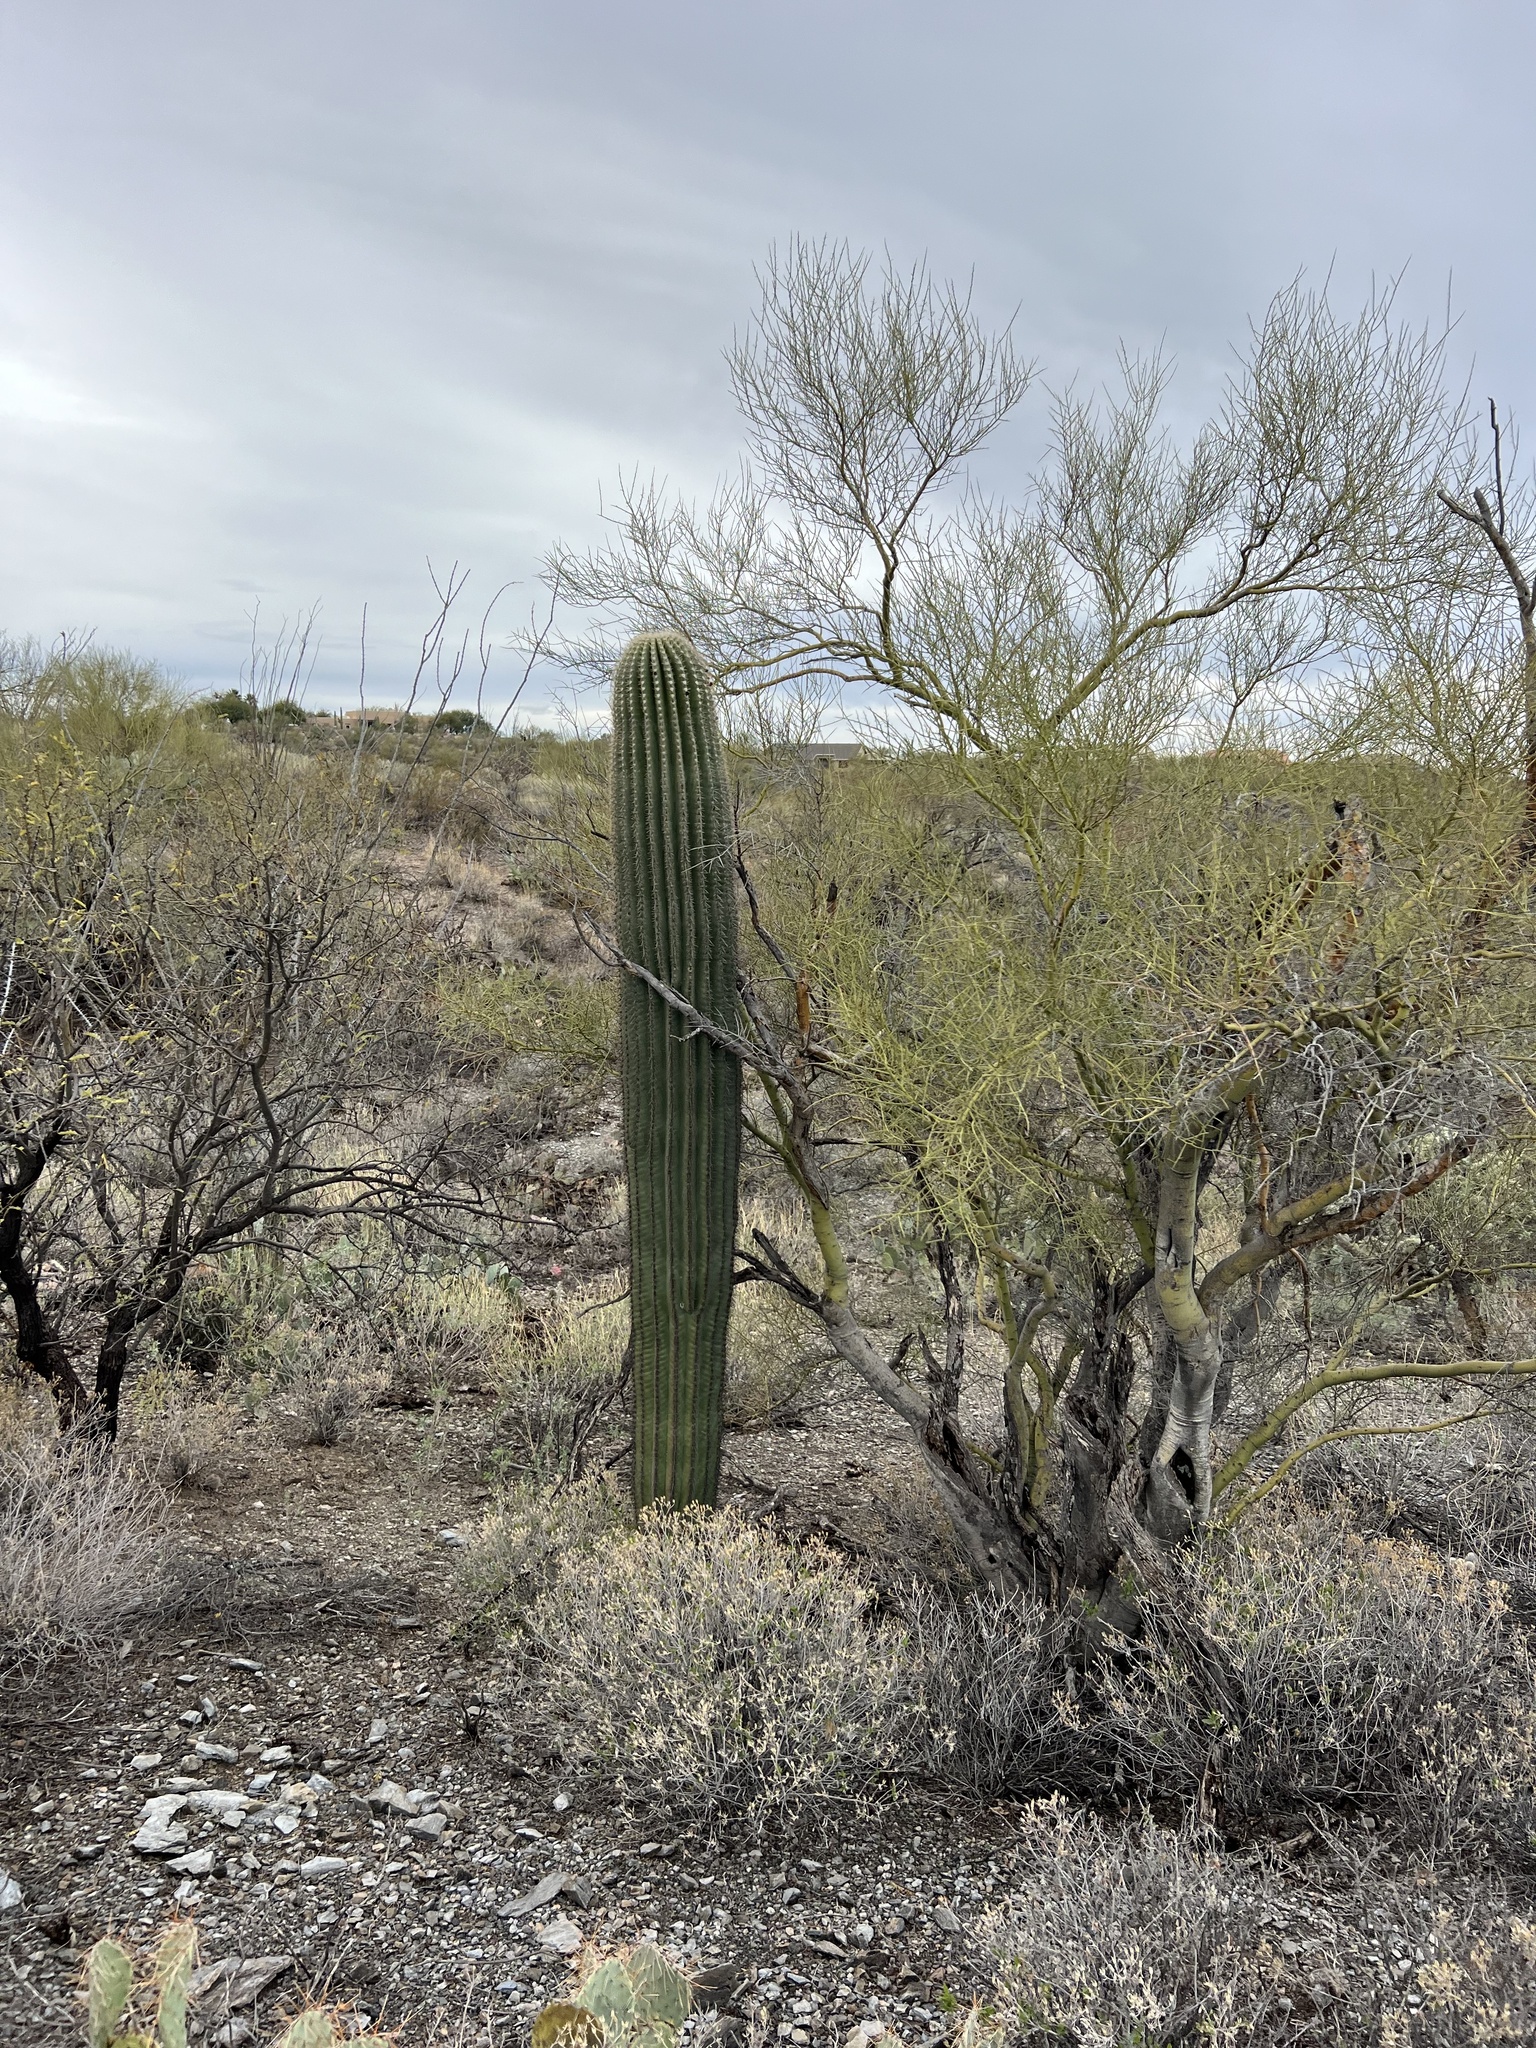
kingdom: Plantae
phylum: Tracheophyta
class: Magnoliopsida
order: Caryophyllales
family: Cactaceae
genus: Carnegiea
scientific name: Carnegiea gigantea
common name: Saguaro
